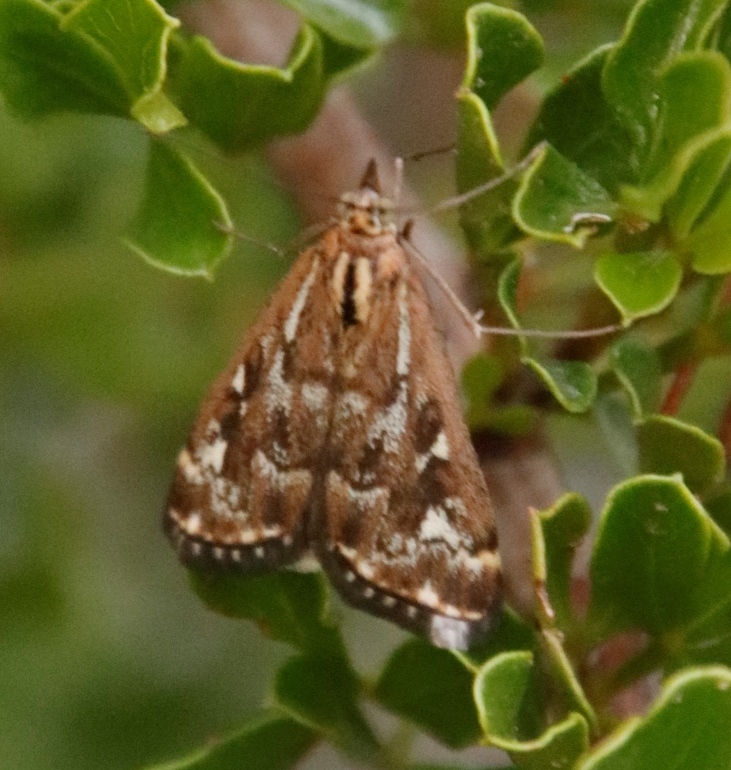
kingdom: Animalia
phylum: Arthropoda
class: Insecta
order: Lepidoptera
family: Crambidae
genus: Loxostege
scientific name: Loxostege frustalis
